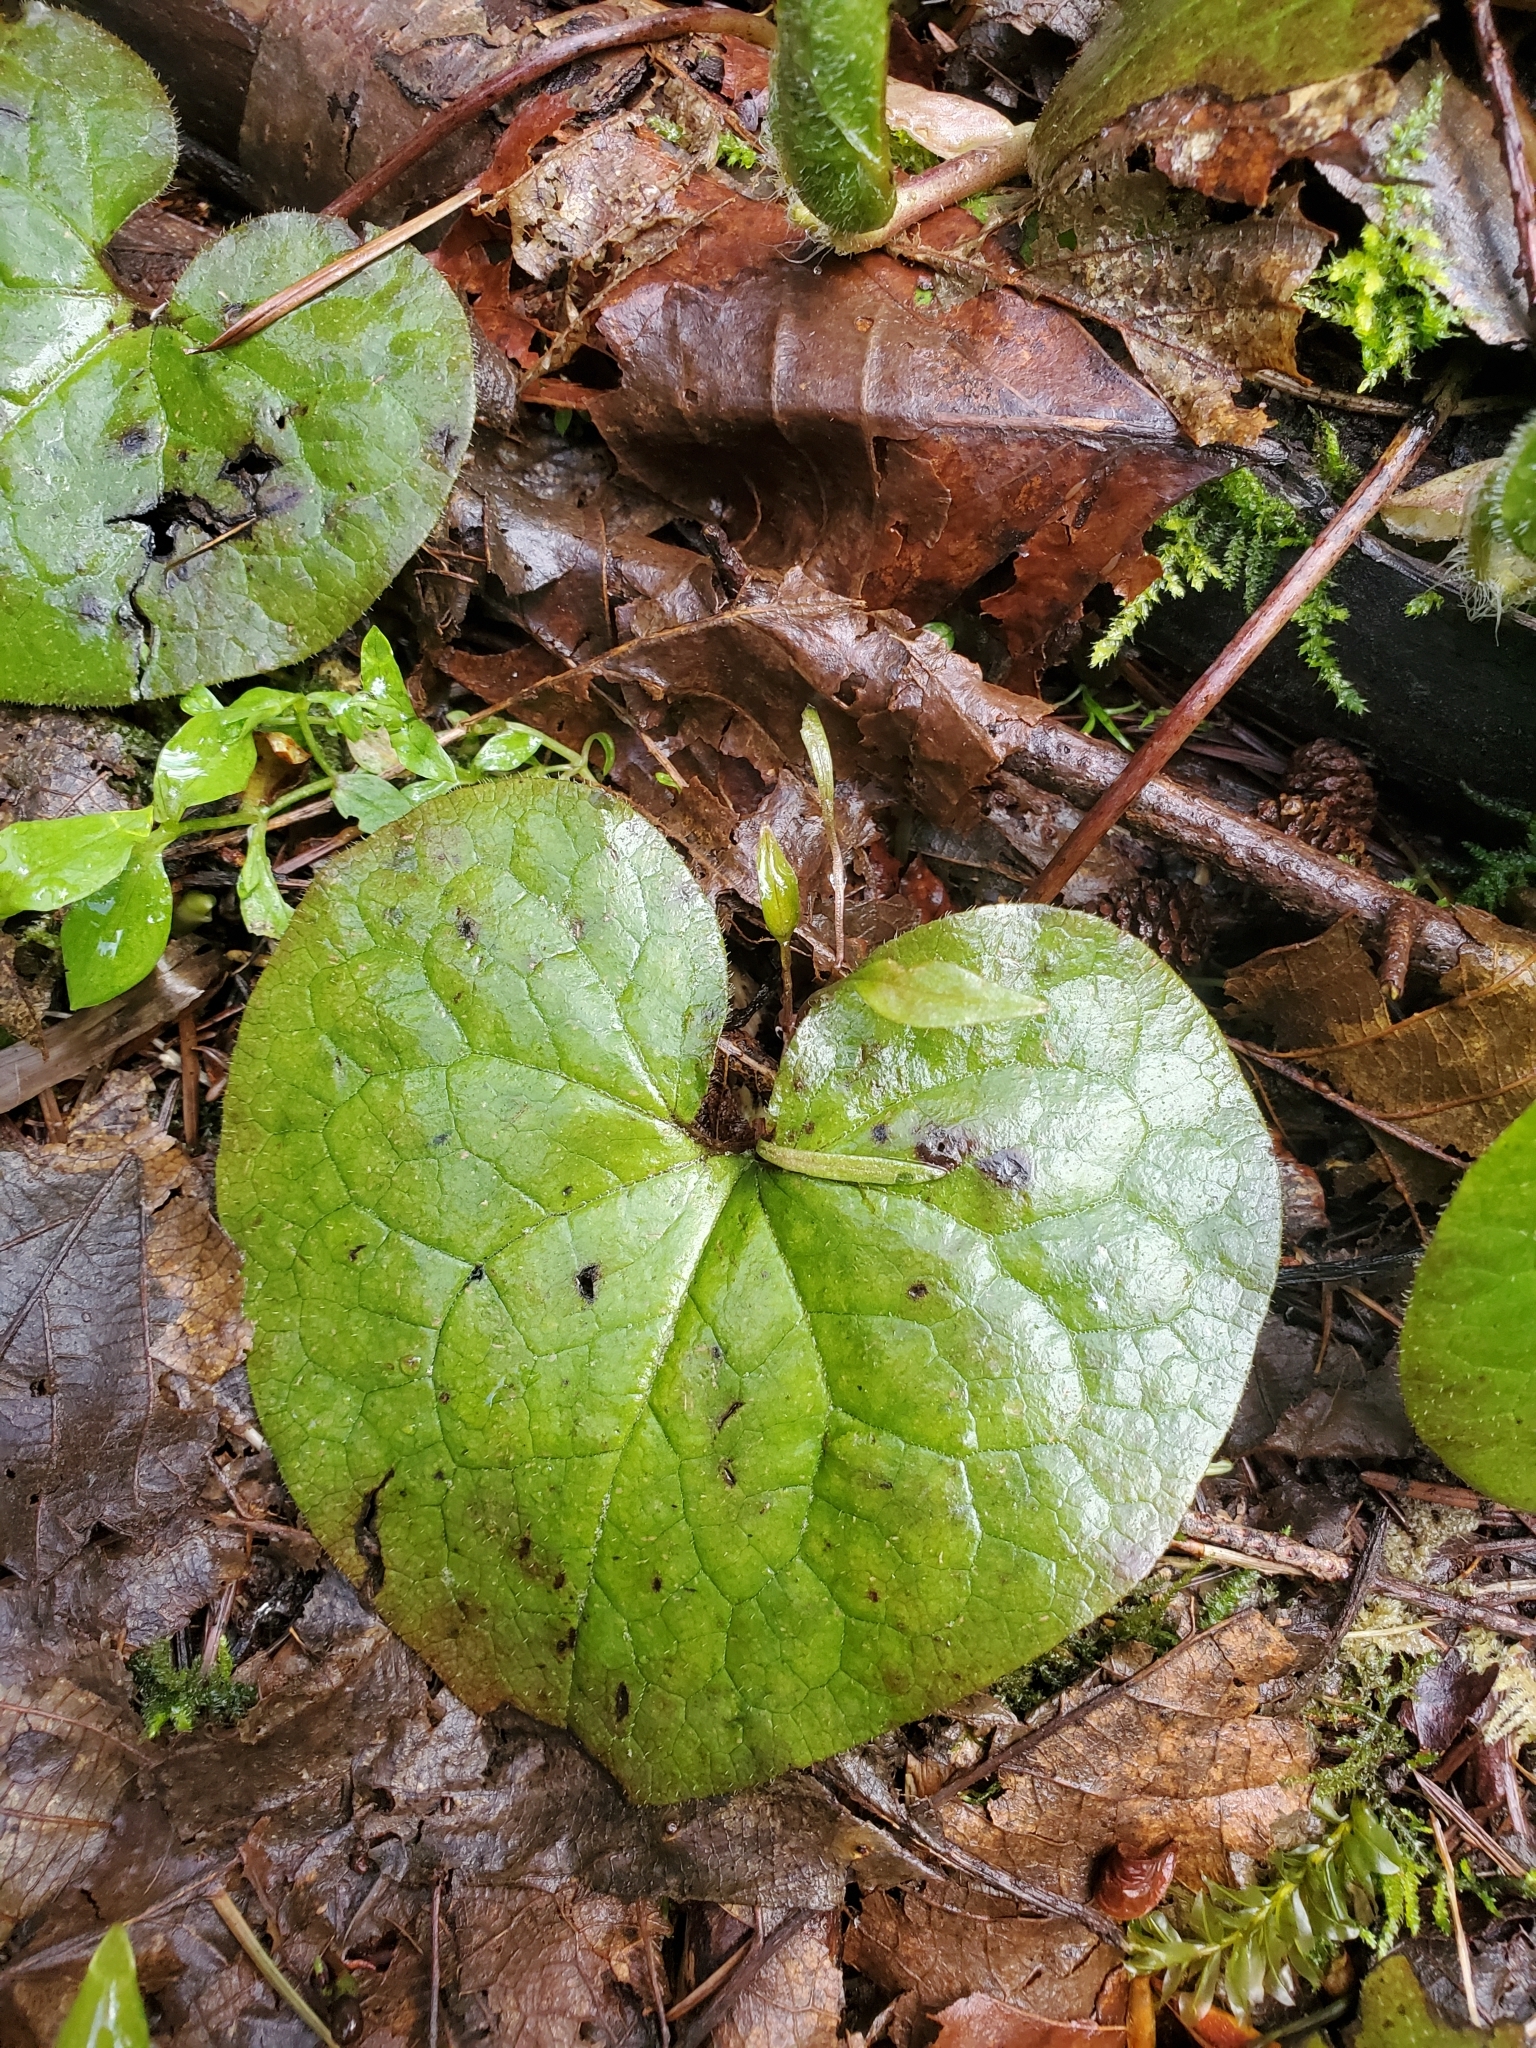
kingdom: Plantae
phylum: Tracheophyta
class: Magnoliopsida
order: Piperales
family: Aristolochiaceae
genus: Asarum
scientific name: Asarum caudatum
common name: Wild ginger
